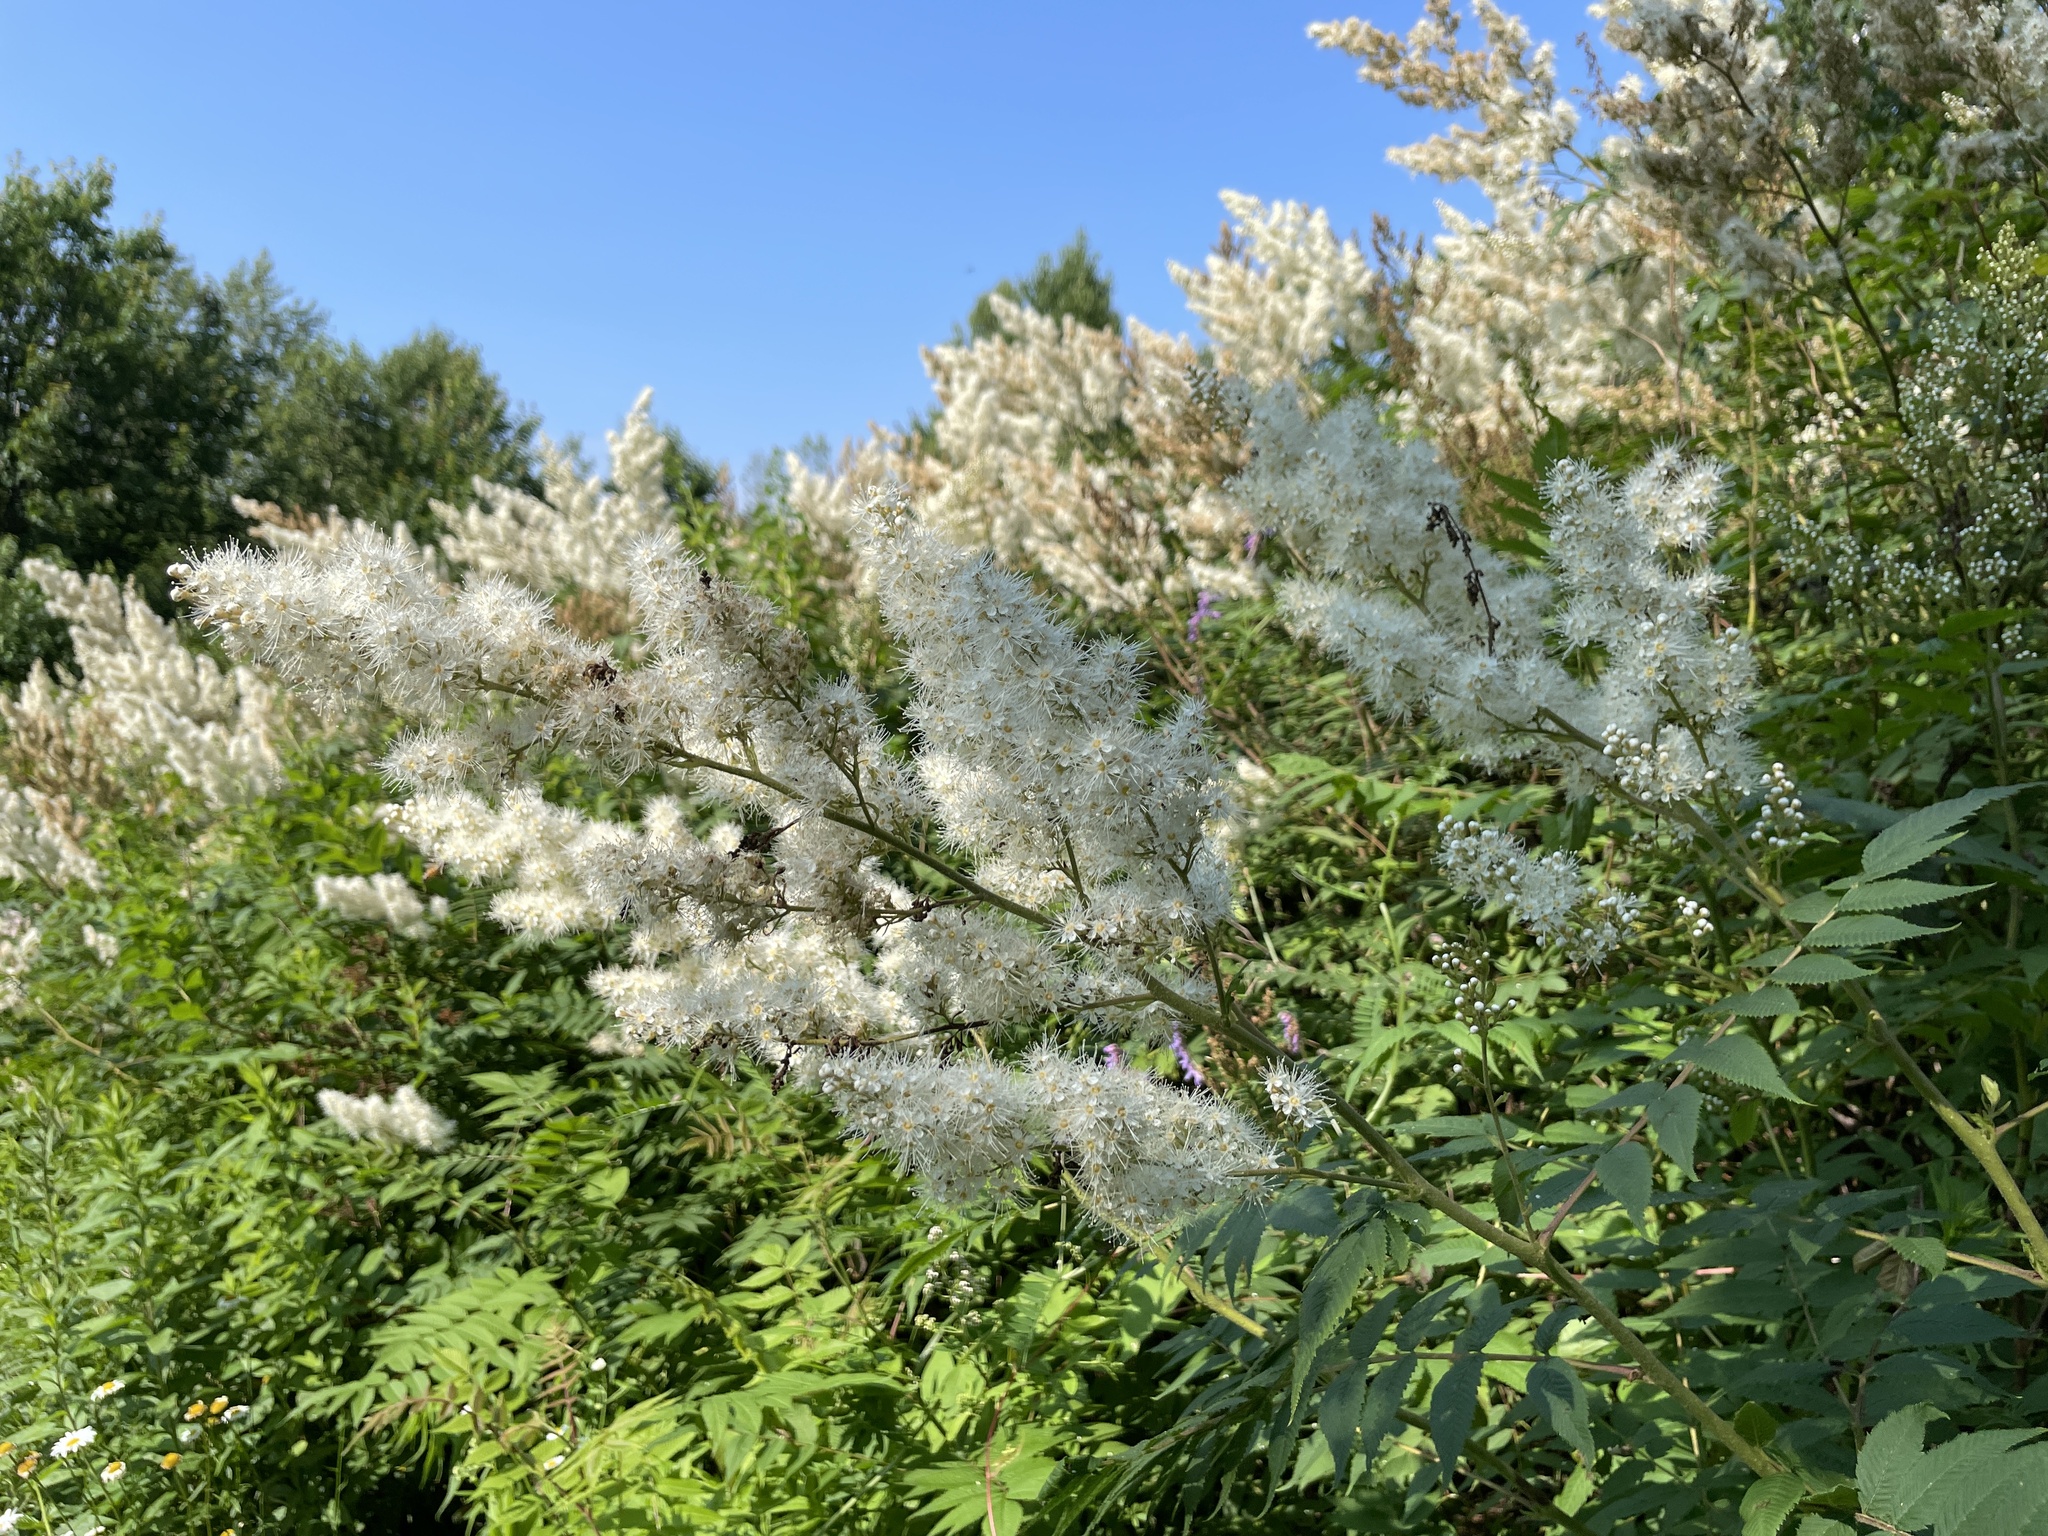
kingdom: Plantae
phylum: Tracheophyta
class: Magnoliopsida
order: Rosales
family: Rosaceae
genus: Sorbaria
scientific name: Sorbaria sorbifolia
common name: False spiraea
